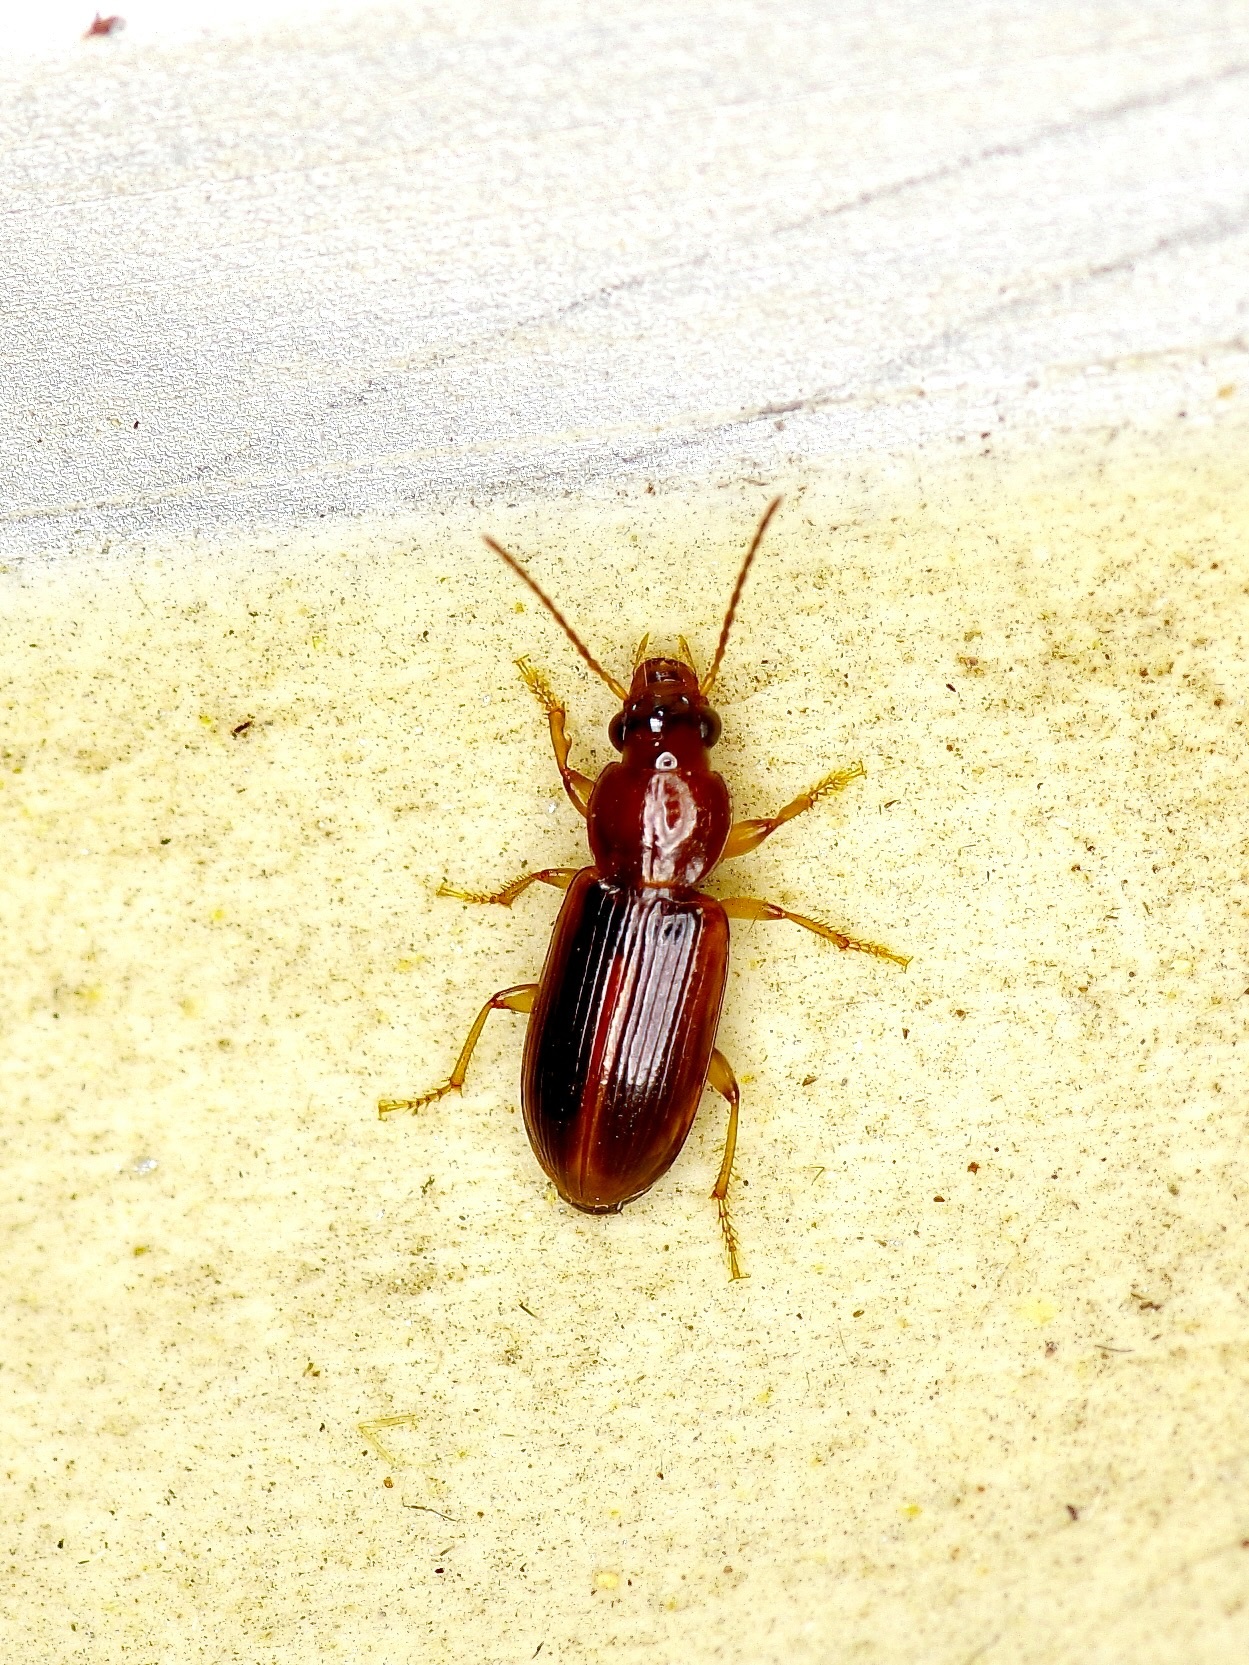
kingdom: Animalia
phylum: Arthropoda
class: Insecta
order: Coleoptera
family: Carabidae
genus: Bradycellus
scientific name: Bradycellus rupestris
